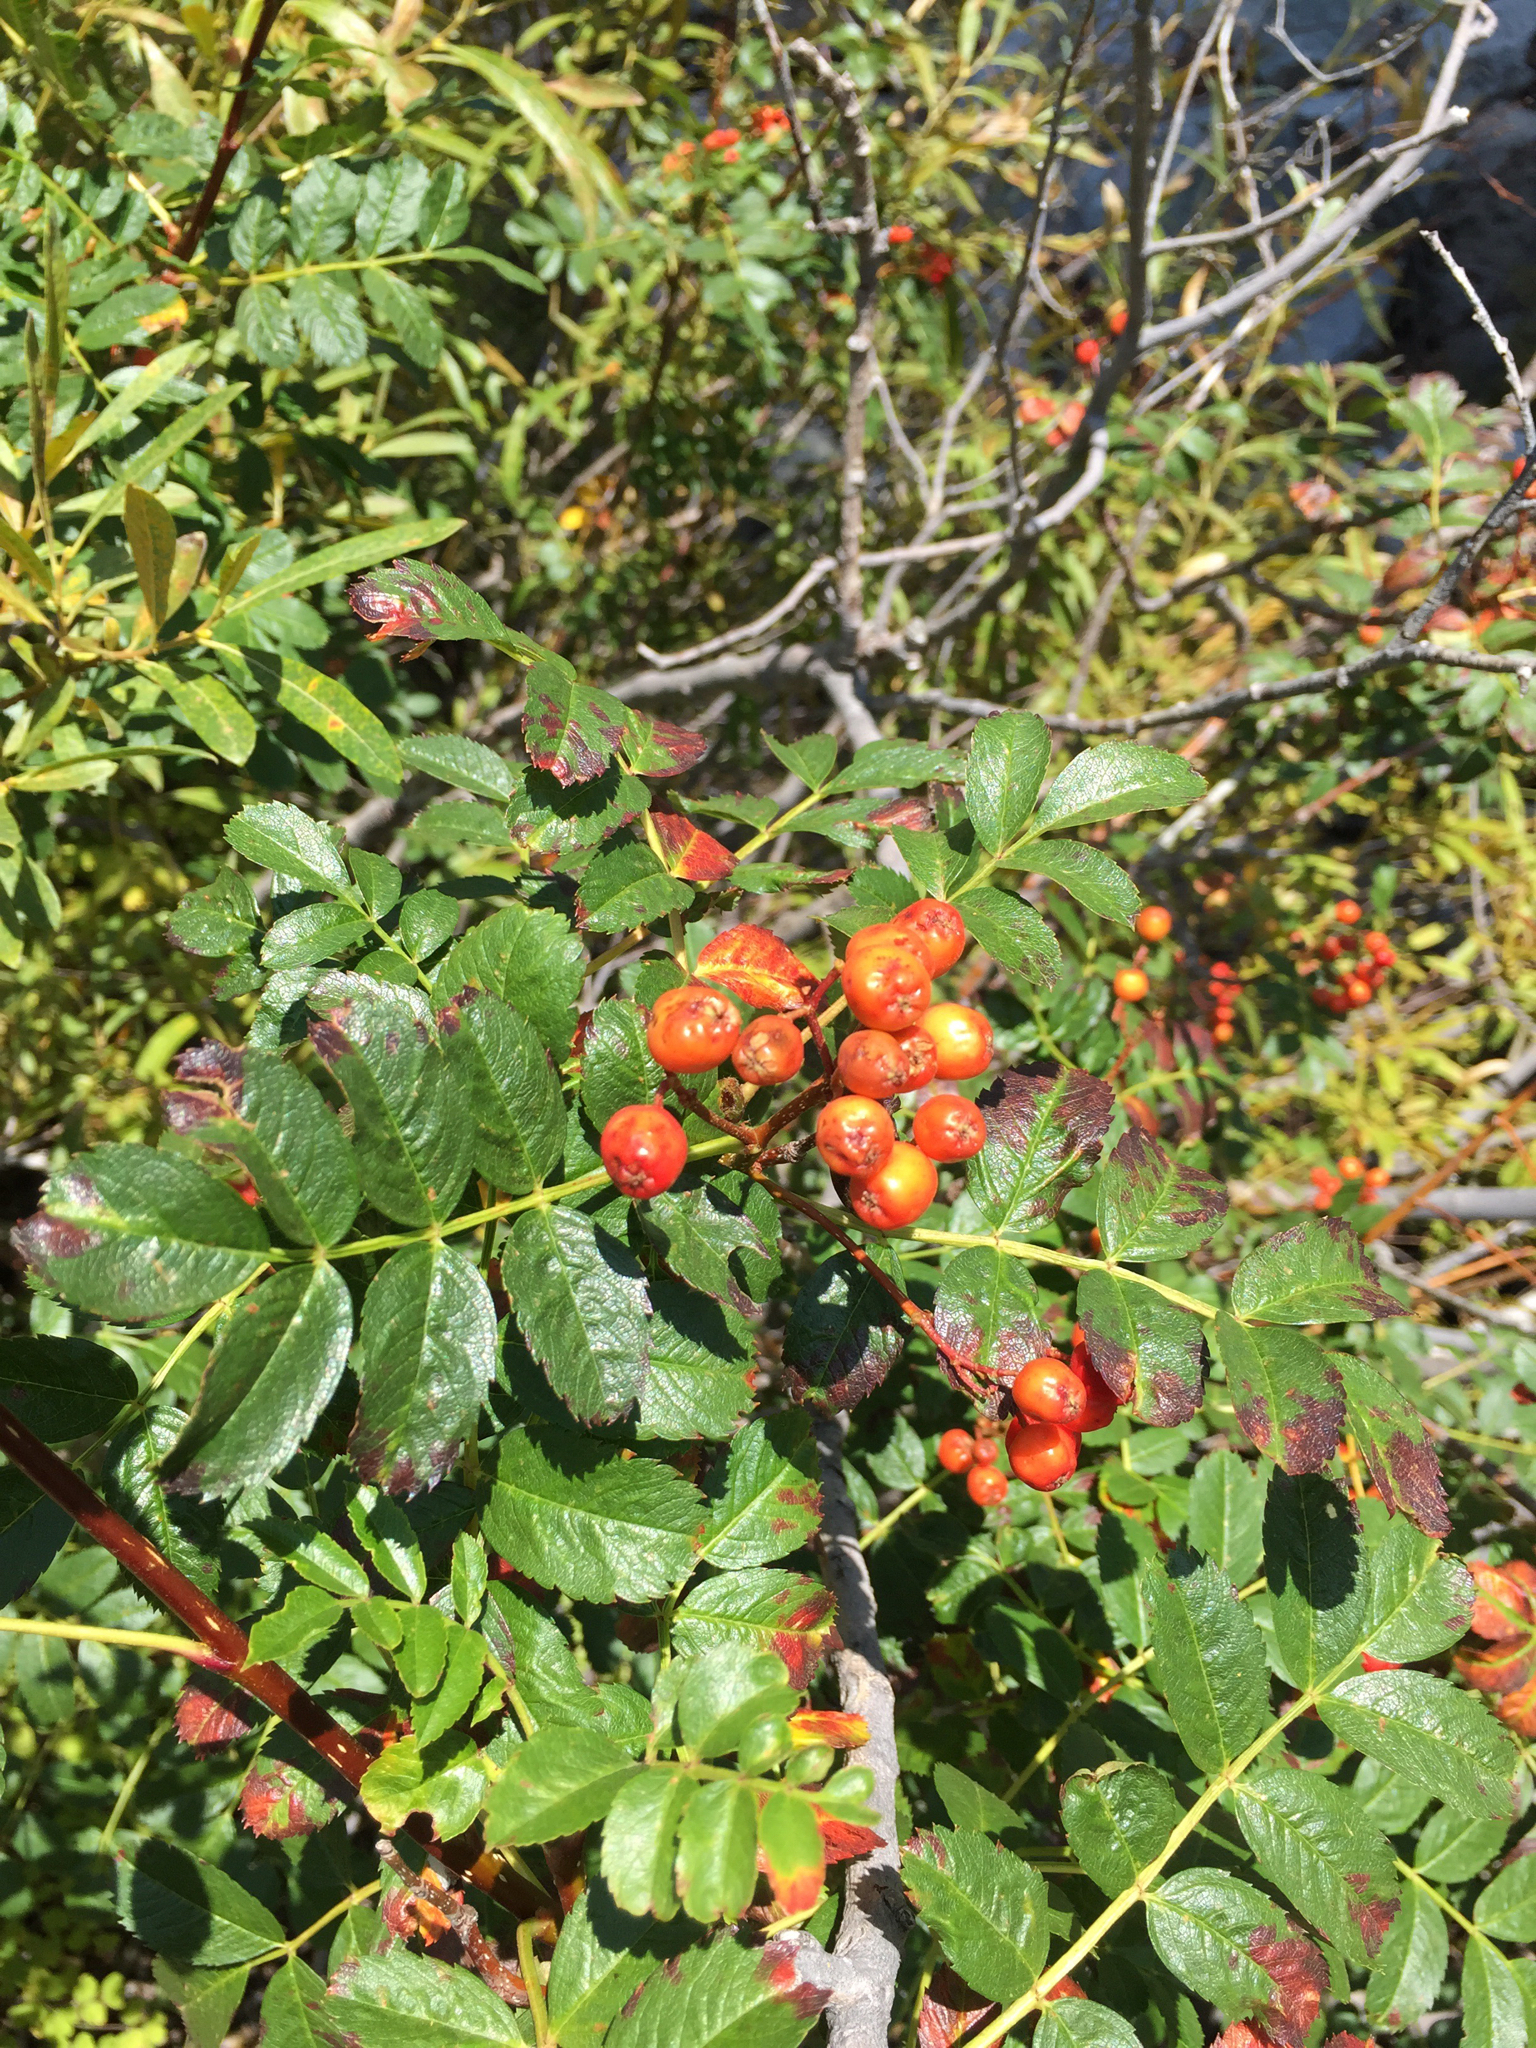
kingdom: Plantae
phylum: Tracheophyta
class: Magnoliopsida
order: Rosales
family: Rosaceae
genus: Sorbus
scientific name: Sorbus californica
